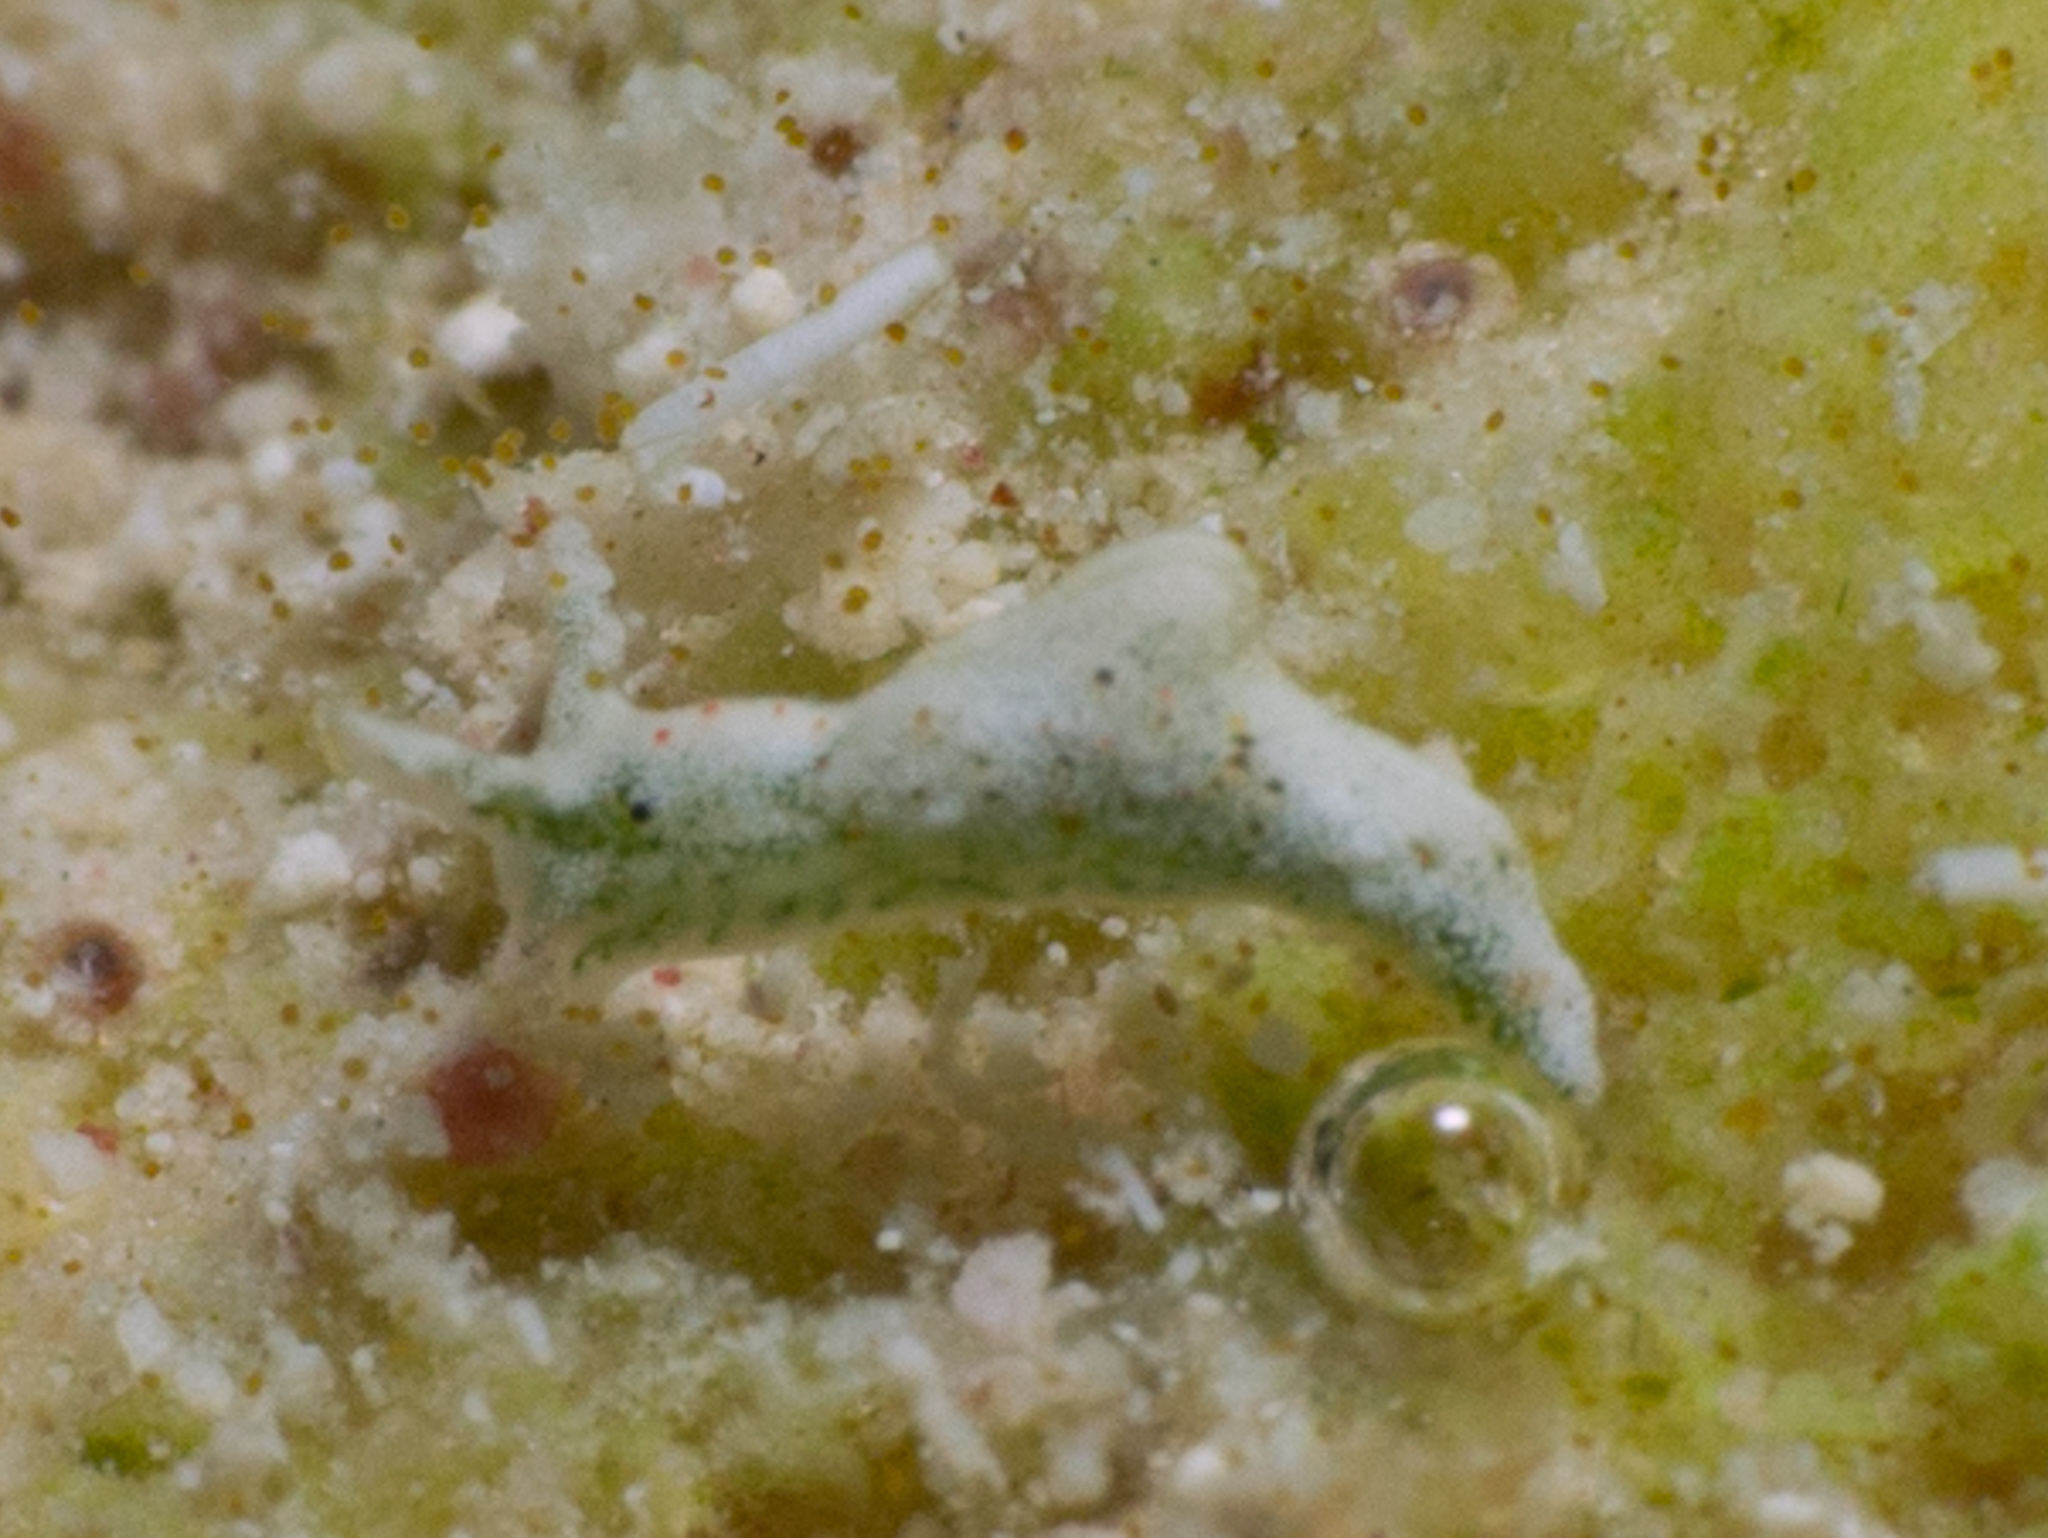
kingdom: Animalia
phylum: Mollusca
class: Gastropoda
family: Plakobranchidae
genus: Elysia
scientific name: Elysia cornigera
